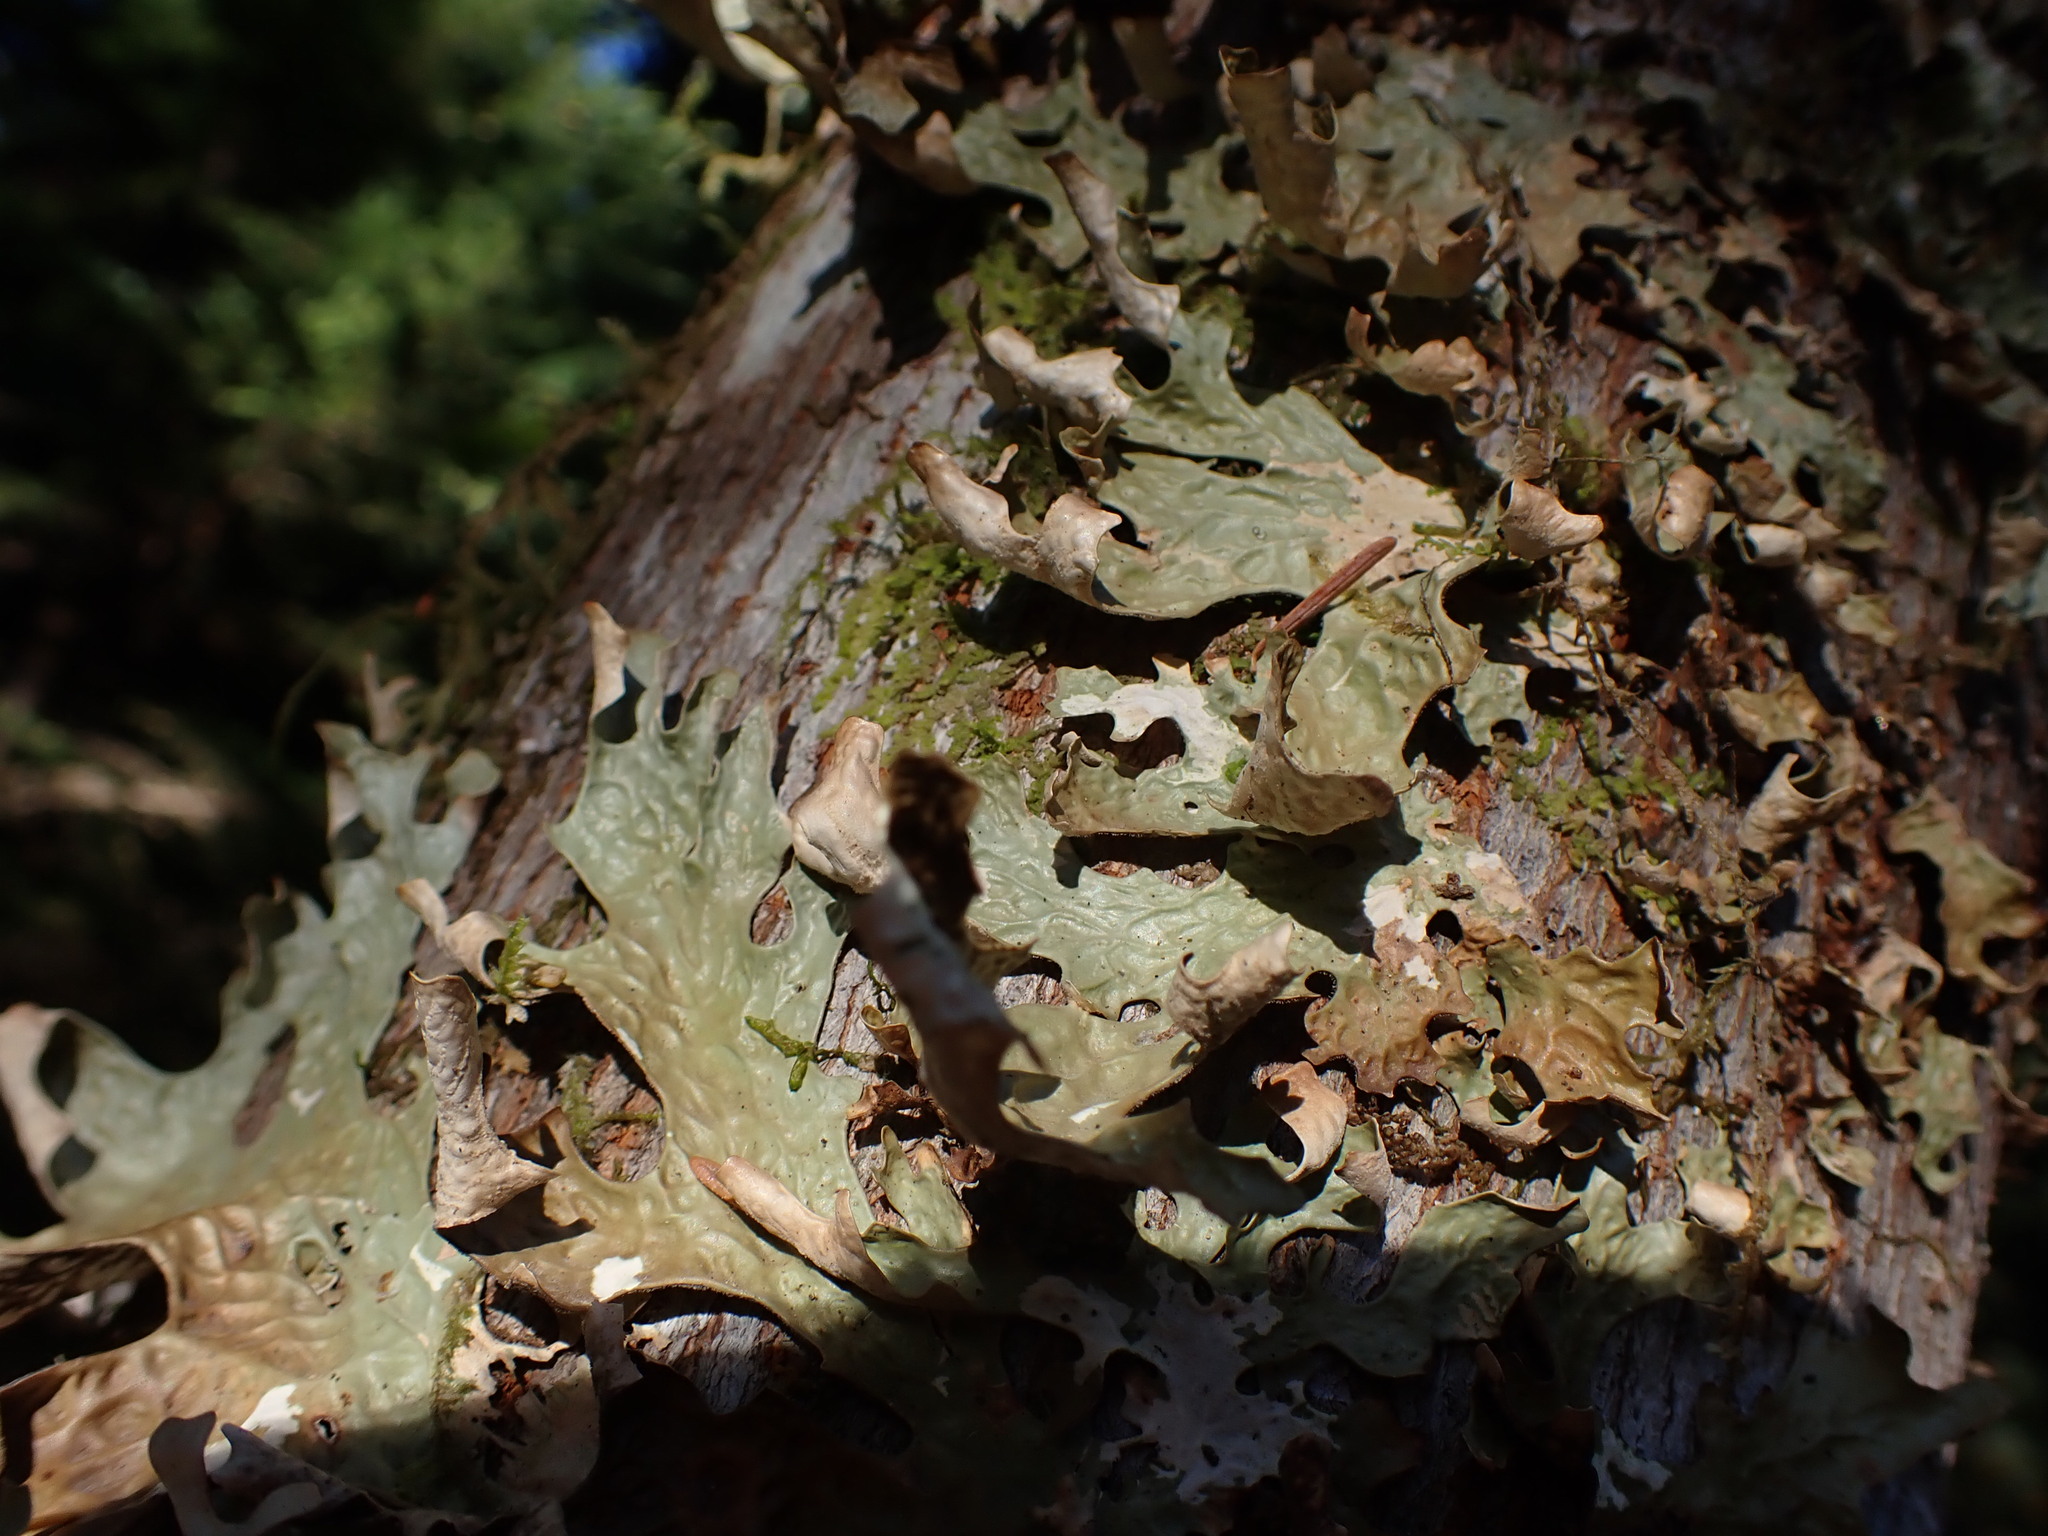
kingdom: Fungi
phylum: Ascomycota
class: Lecanoromycetes
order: Peltigerales
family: Lobariaceae
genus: Lobaria
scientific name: Lobaria pulmonaria
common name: Lungwort
